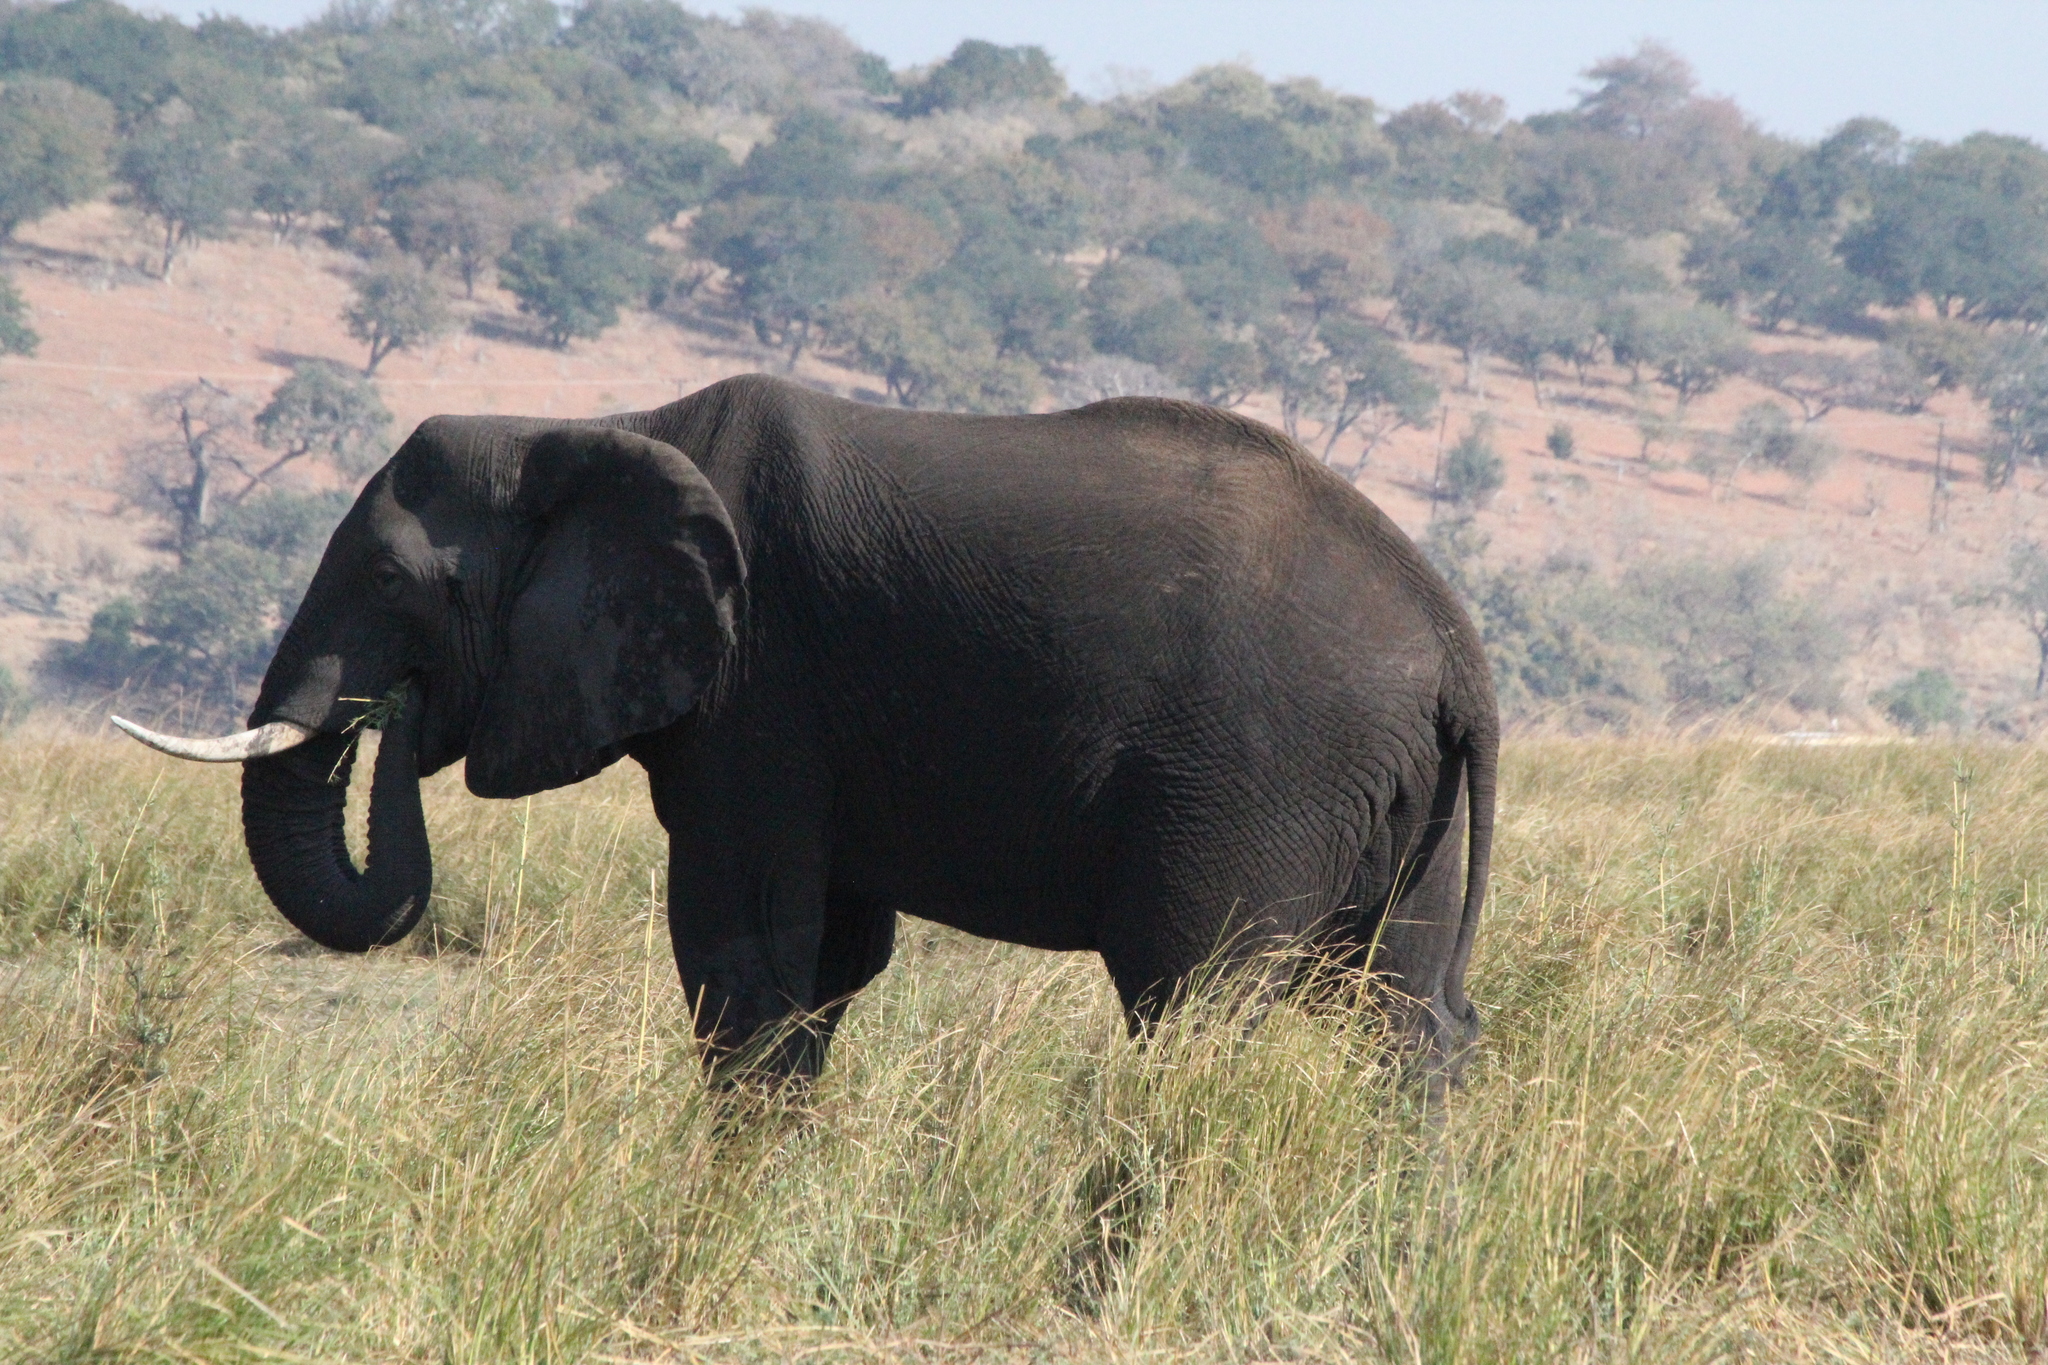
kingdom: Animalia
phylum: Chordata
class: Mammalia
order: Proboscidea
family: Elephantidae
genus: Loxodonta
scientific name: Loxodonta africana
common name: African elephant
